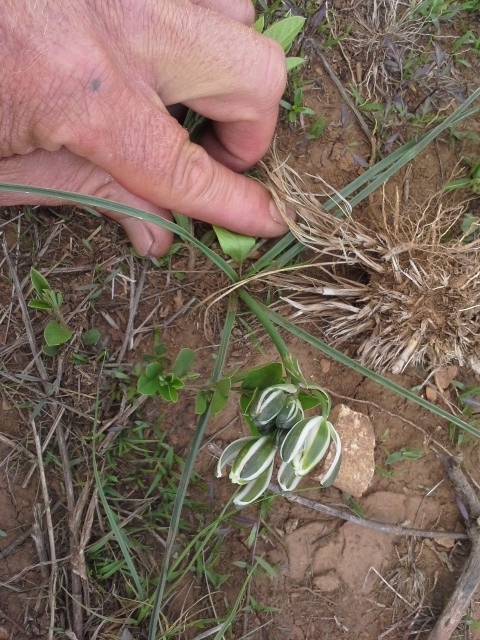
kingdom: Plantae
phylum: Tracheophyta
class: Liliopsida
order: Asparagales
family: Asparagaceae
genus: Albuca
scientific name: Albuca setosa
